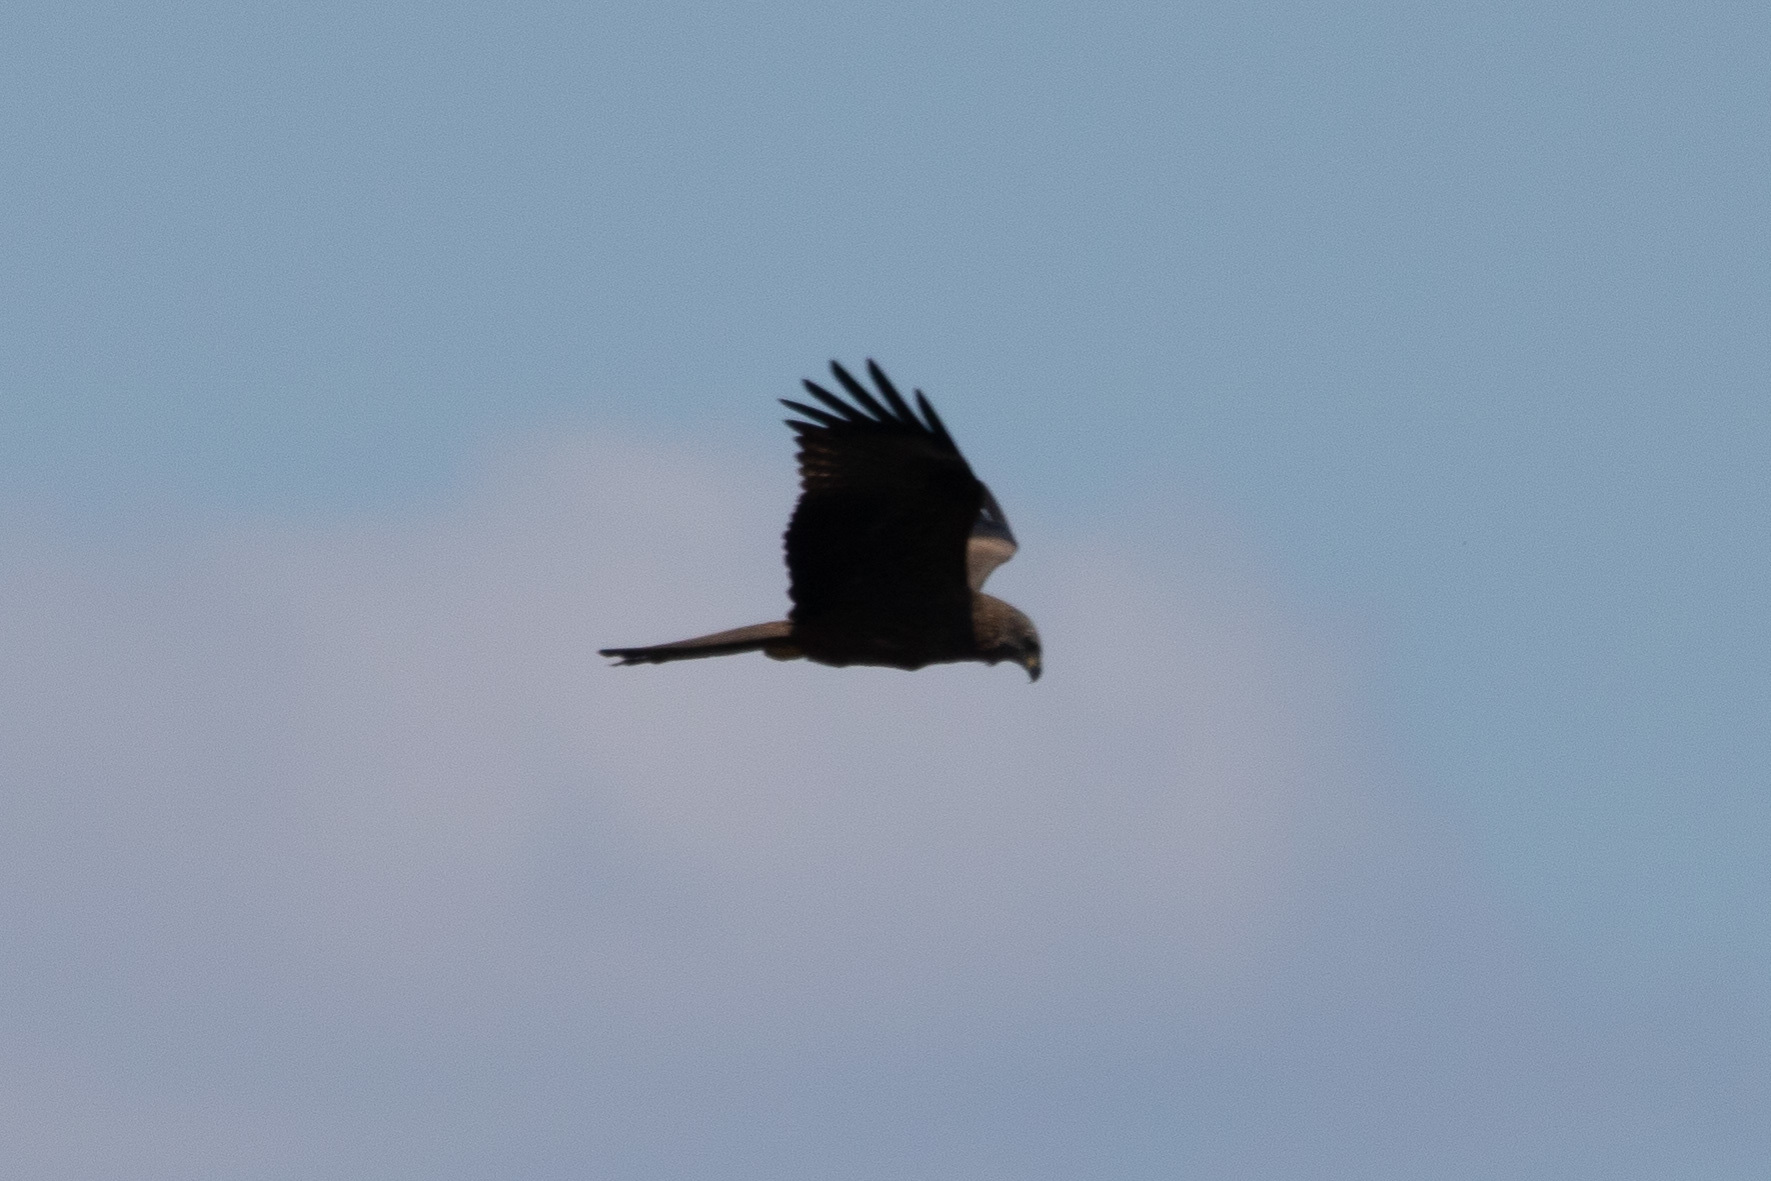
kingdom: Animalia
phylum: Chordata
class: Aves
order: Accipitriformes
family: Accipitridae
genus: Milvus
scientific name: Milvus migrans
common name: Black kite
